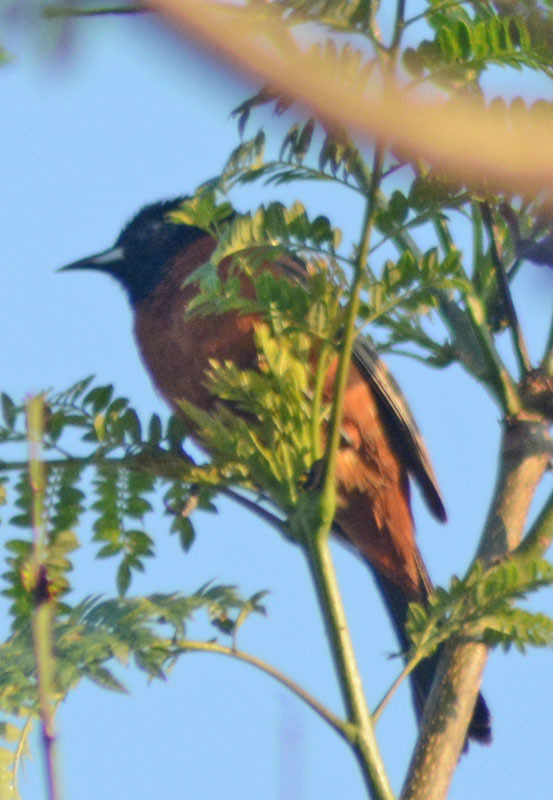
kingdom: Animalia
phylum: Chordata
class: Aves
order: Passeriformes
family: Icteridae
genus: Icterus
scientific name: Icterus spurius
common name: Orchard oriole
